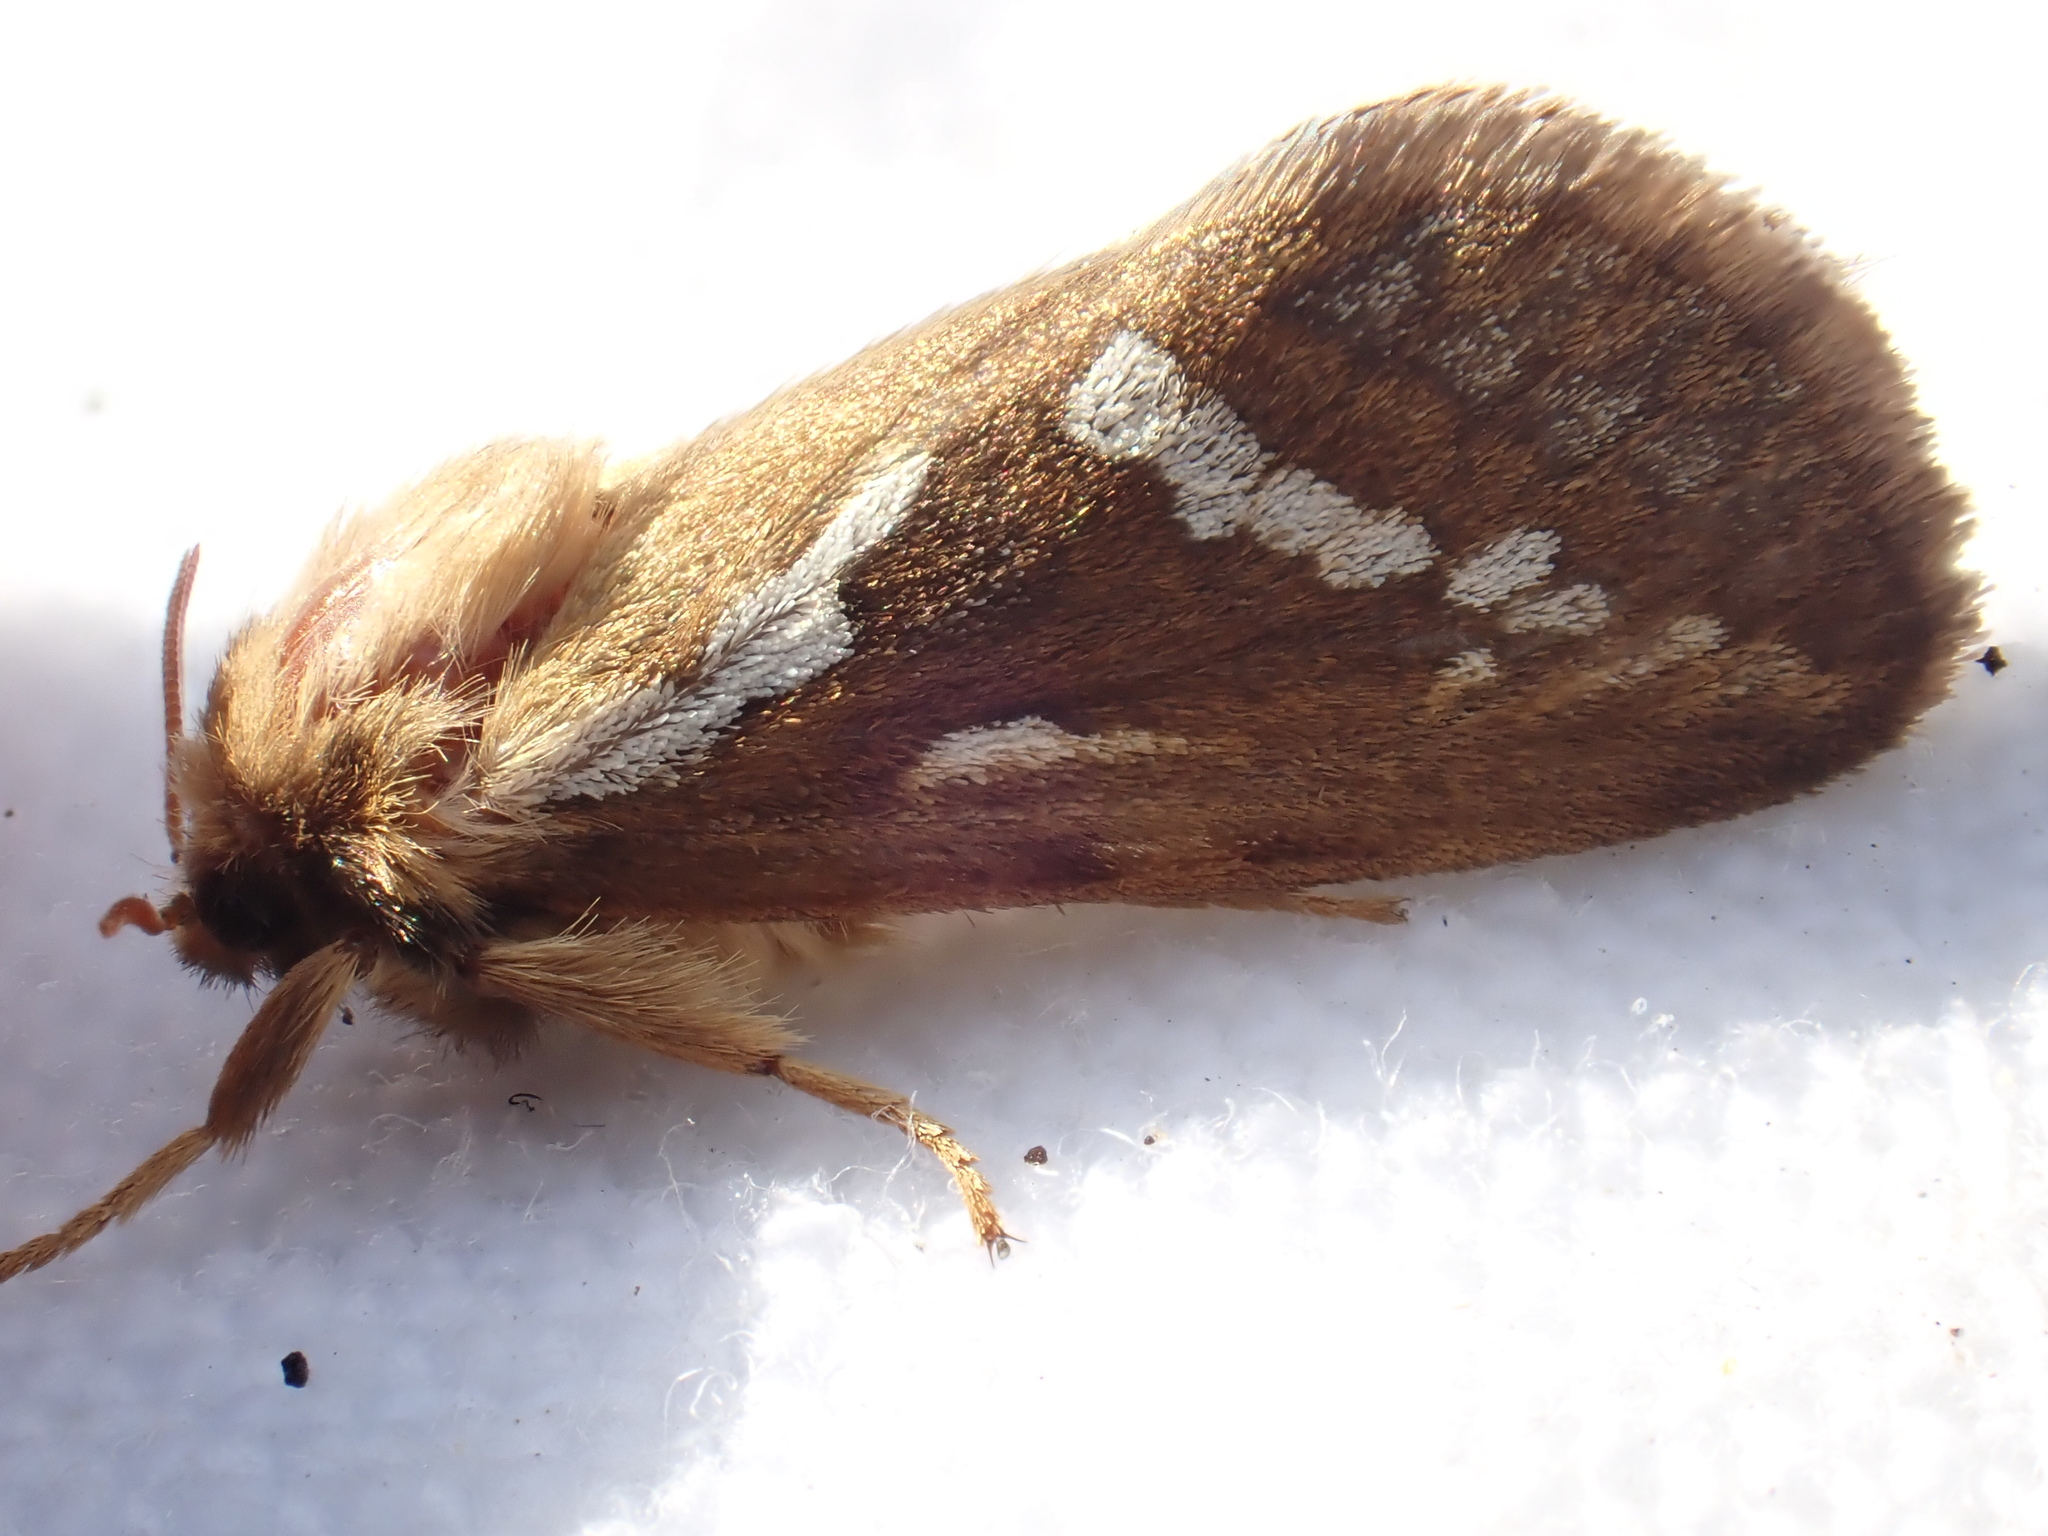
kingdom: Animalia
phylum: Arthropoda
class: Insecta
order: Lepidoptera
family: Hepialidae
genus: Korscheltellus
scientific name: Korscheltellus lupulina
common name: Common swift
